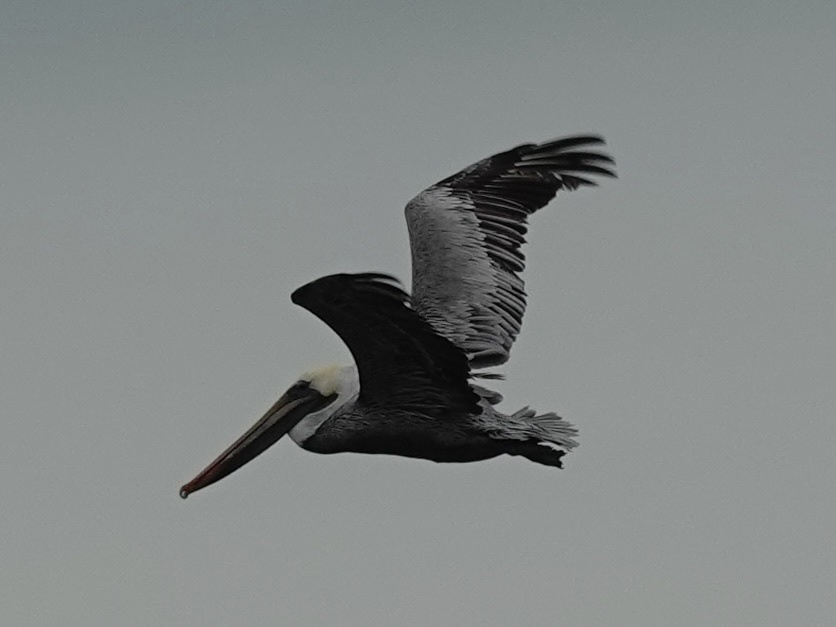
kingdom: Animalia
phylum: Chordata
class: Aves
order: Pelecaniformes
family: Pelecanidae
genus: Pelecanus
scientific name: Pelecanus occidentalis
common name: Brown pelican
